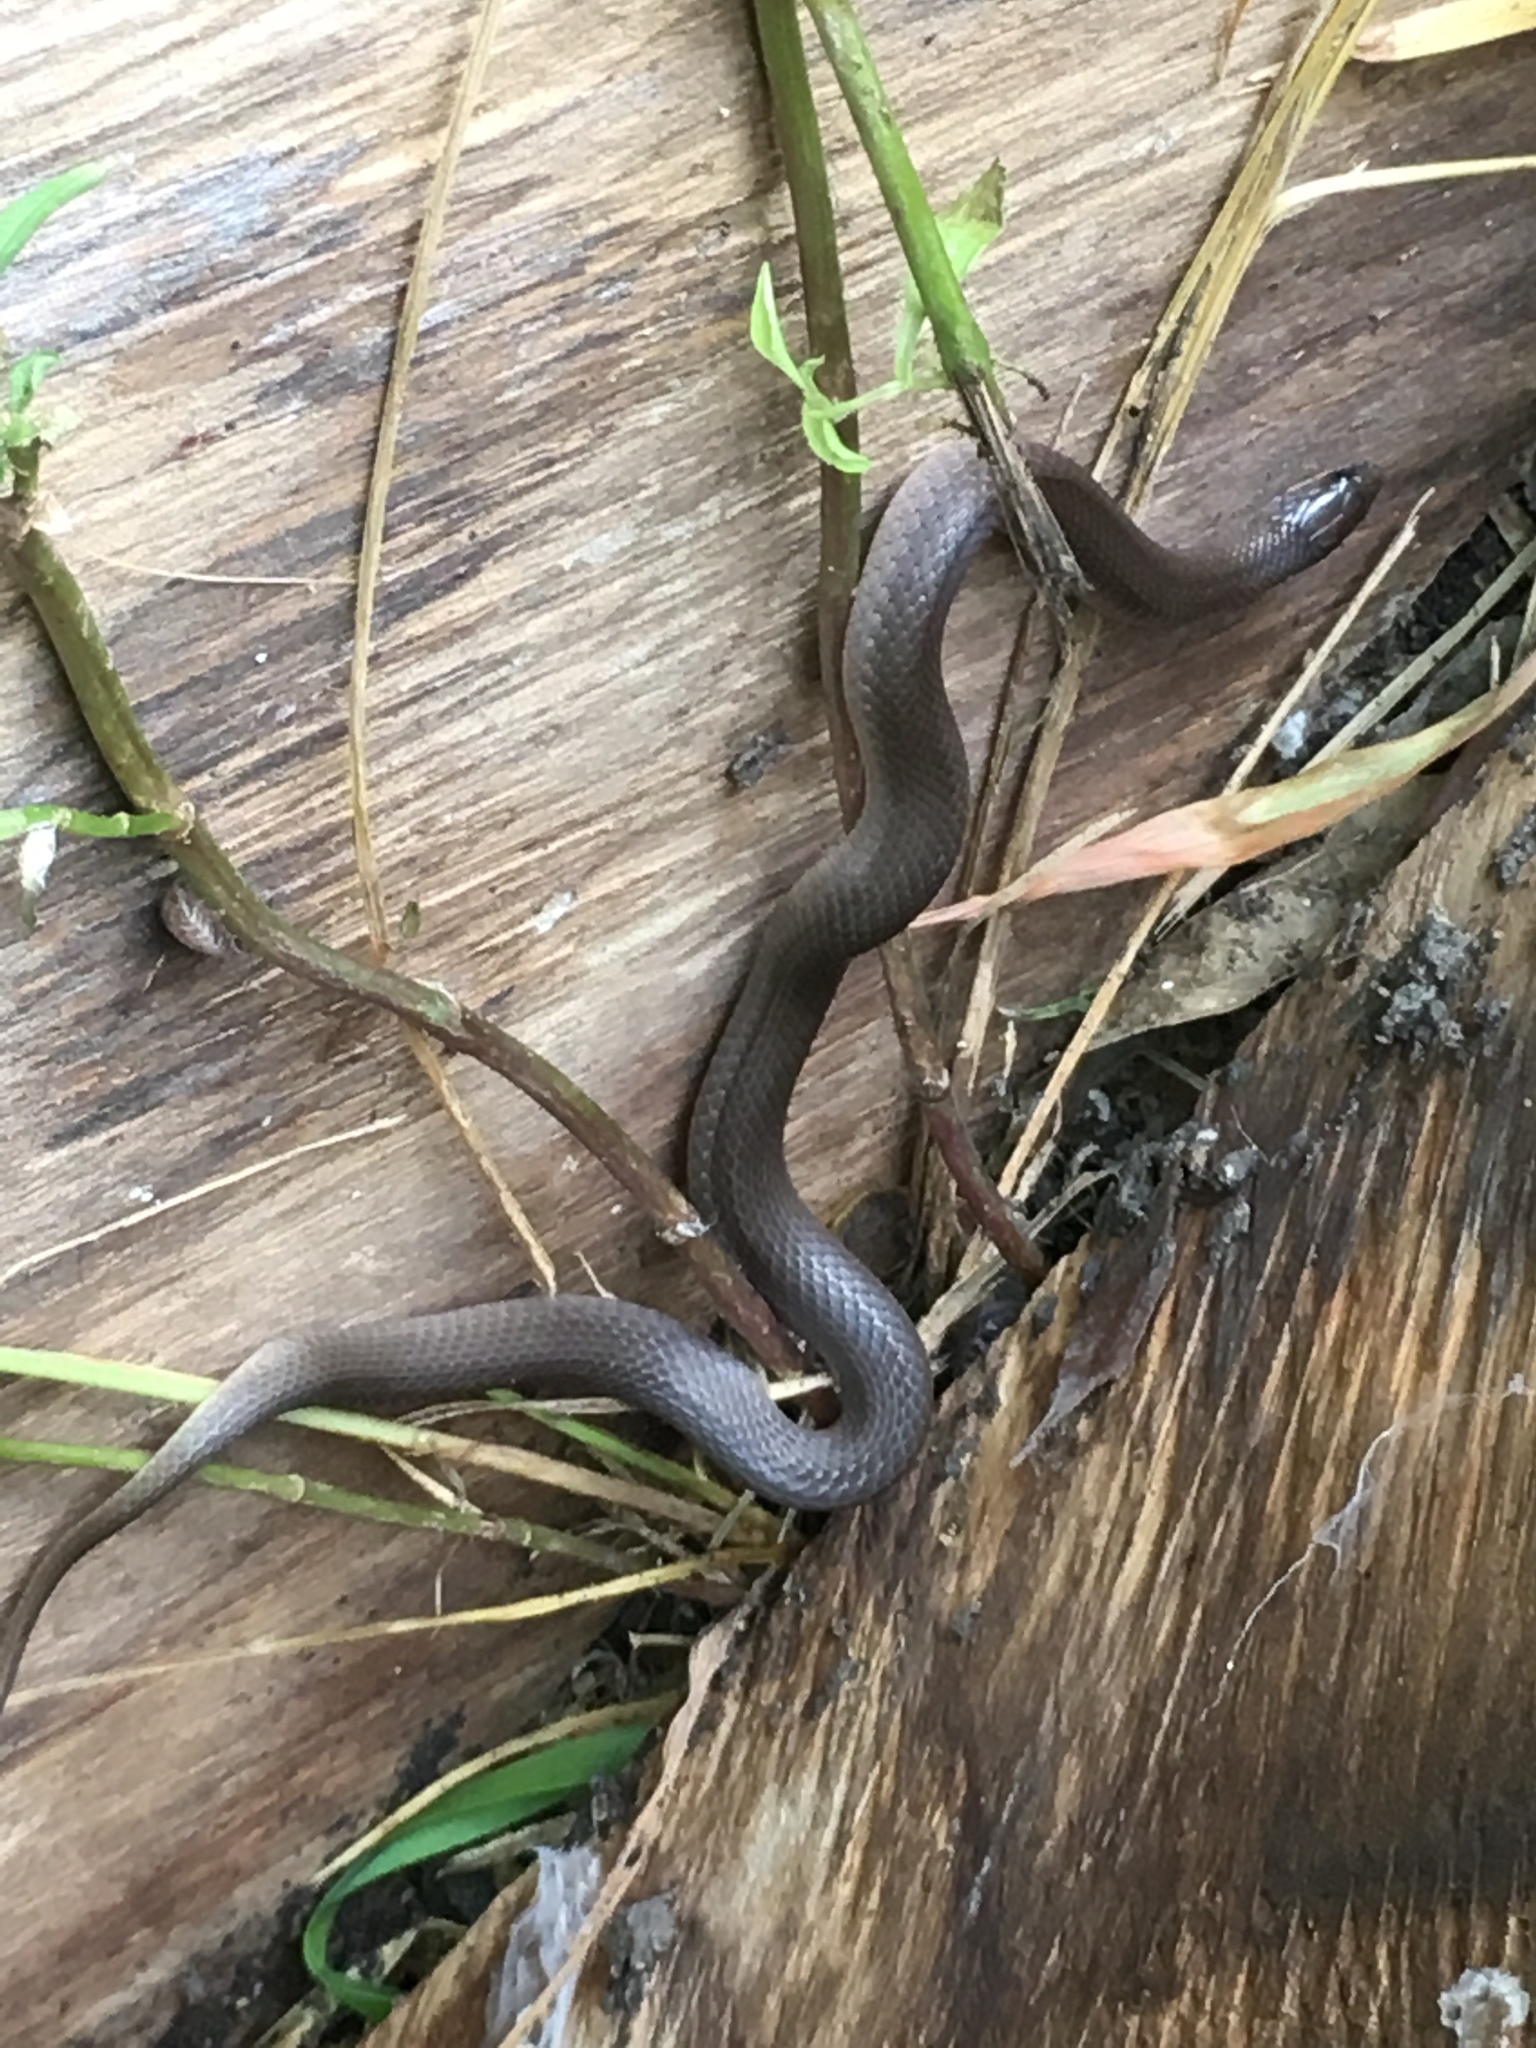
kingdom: Animalia
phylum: Chordata
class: Squamata
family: Colubridae
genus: Haldea
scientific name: Haldea striatula
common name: Rough earth snake
